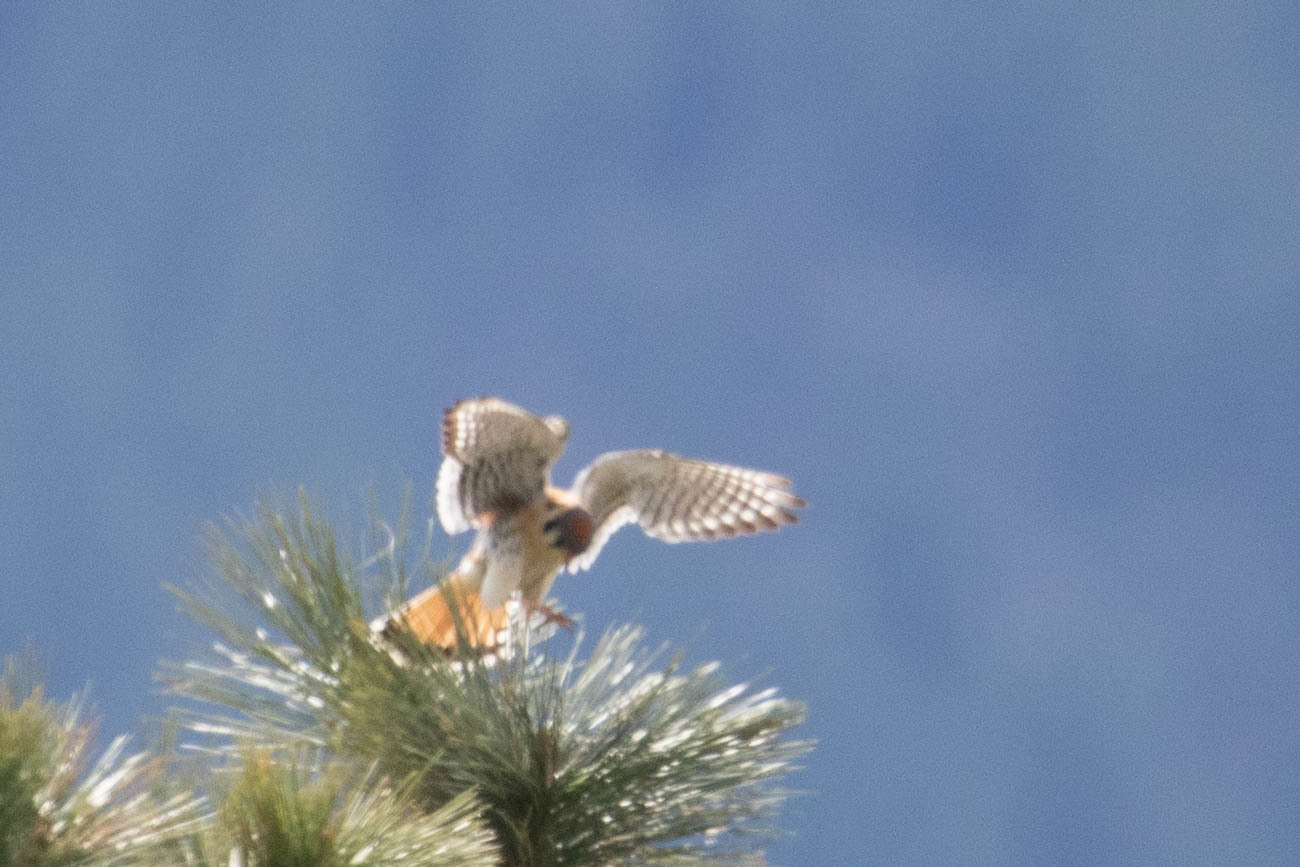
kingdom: Animalia
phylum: Chordata
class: Aves
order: Falconiformes
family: Falconidae
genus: Falco
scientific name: Falco sparverius
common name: American kestrel
